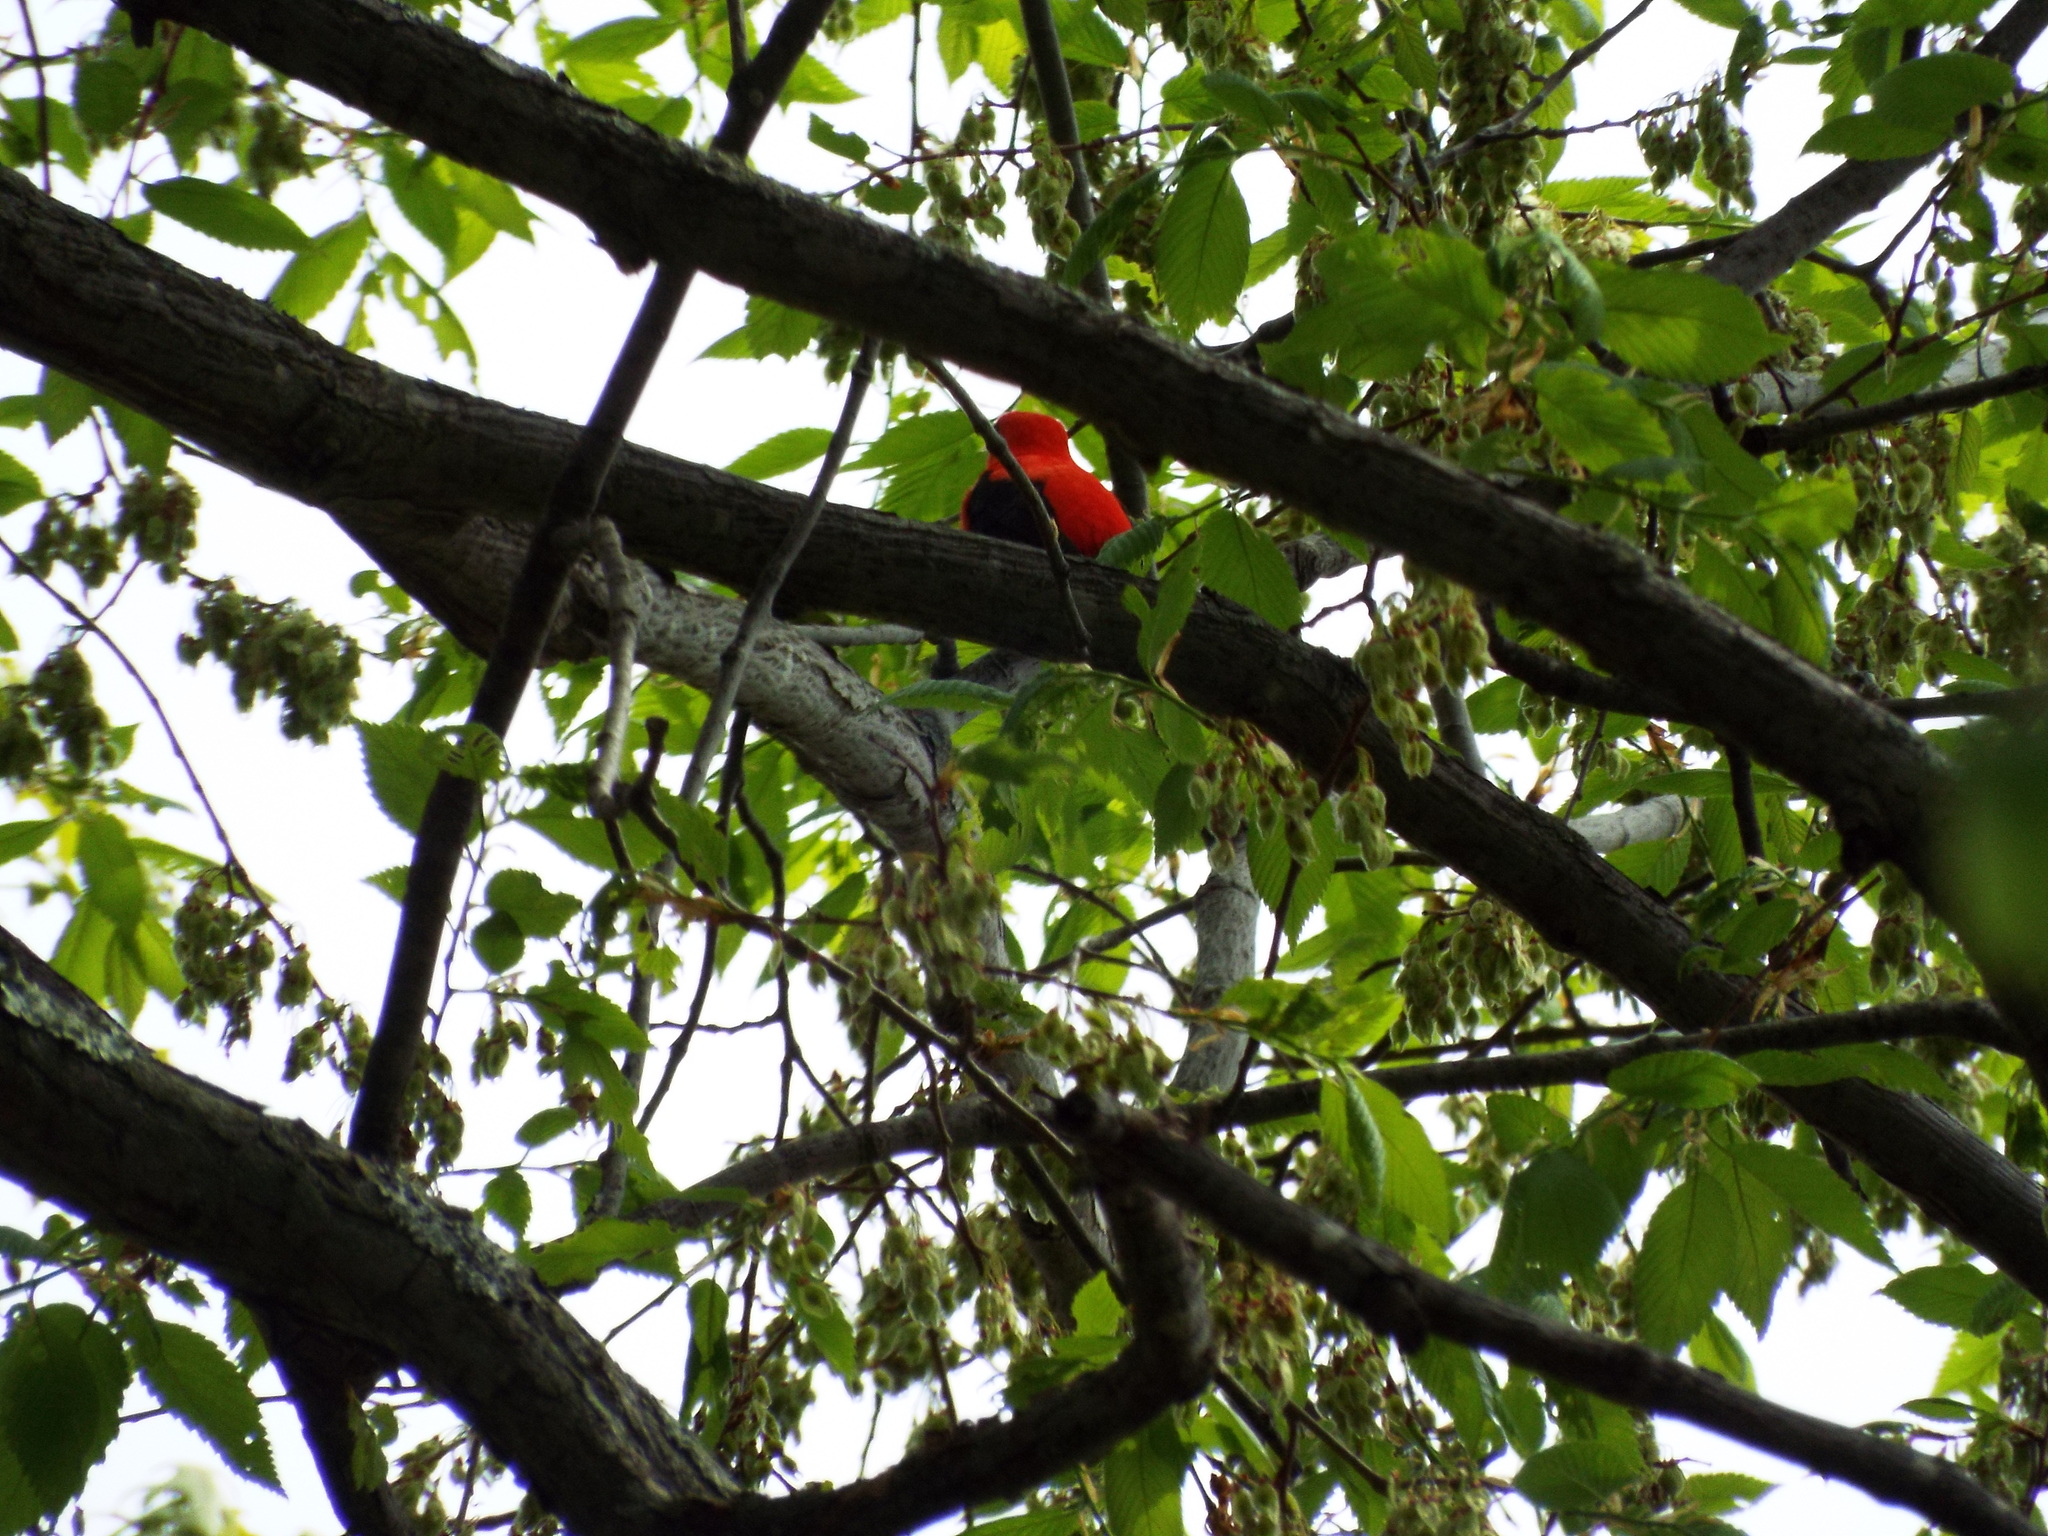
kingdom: Animalia
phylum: Chordata
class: Aves
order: Passeriformes
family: Cardinalidae
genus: Piranga
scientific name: Piranga olivacea
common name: Scarlet tanager
